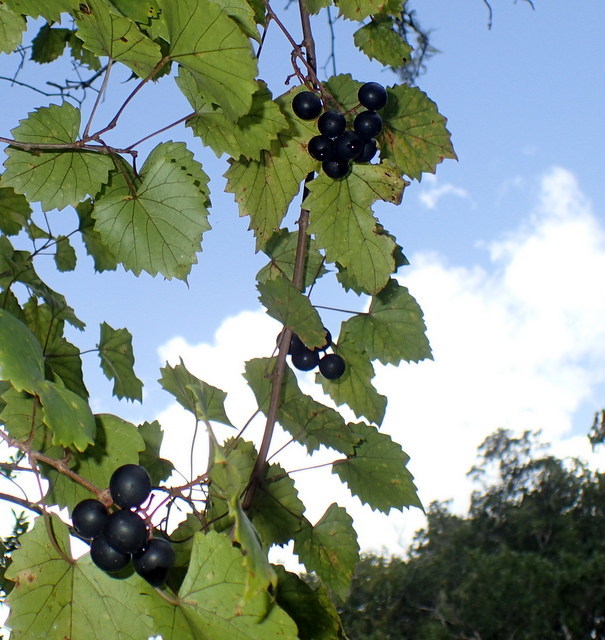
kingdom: Plantae
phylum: Tracheophyta
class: Magnoliopsida
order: Vitales
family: Vitaceae
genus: Vitis
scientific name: Vitis rotundifolia
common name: Muscadine grape
